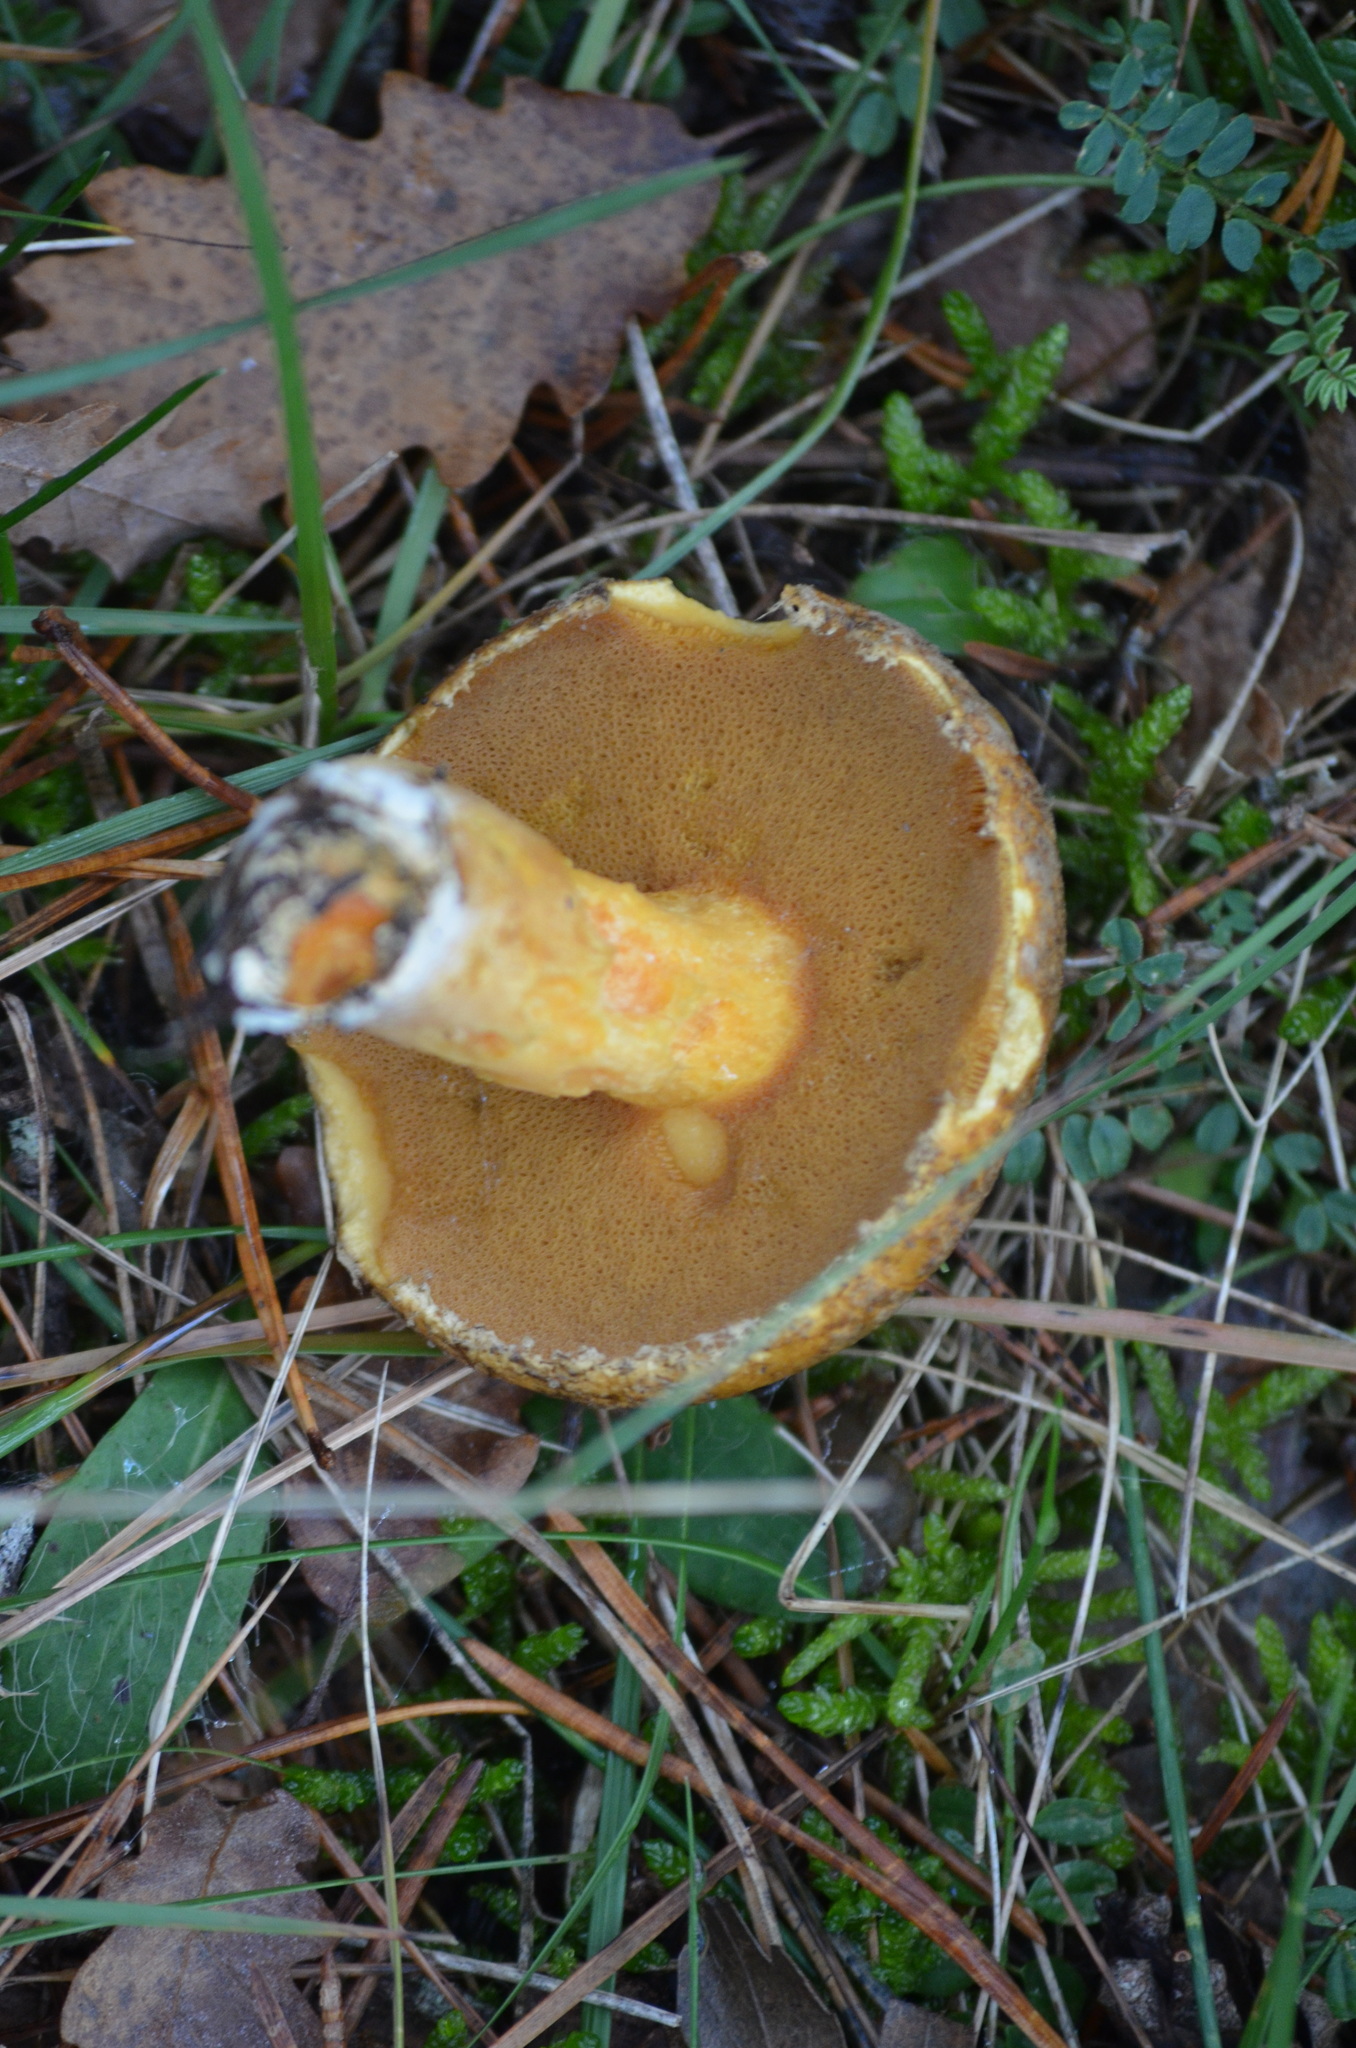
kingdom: Fungi
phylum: Basidiomycota
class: Agaricomycetes
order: Boletales
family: Suillaceae
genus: Suillus
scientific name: Suillus variegatus
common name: Velvet bolete
